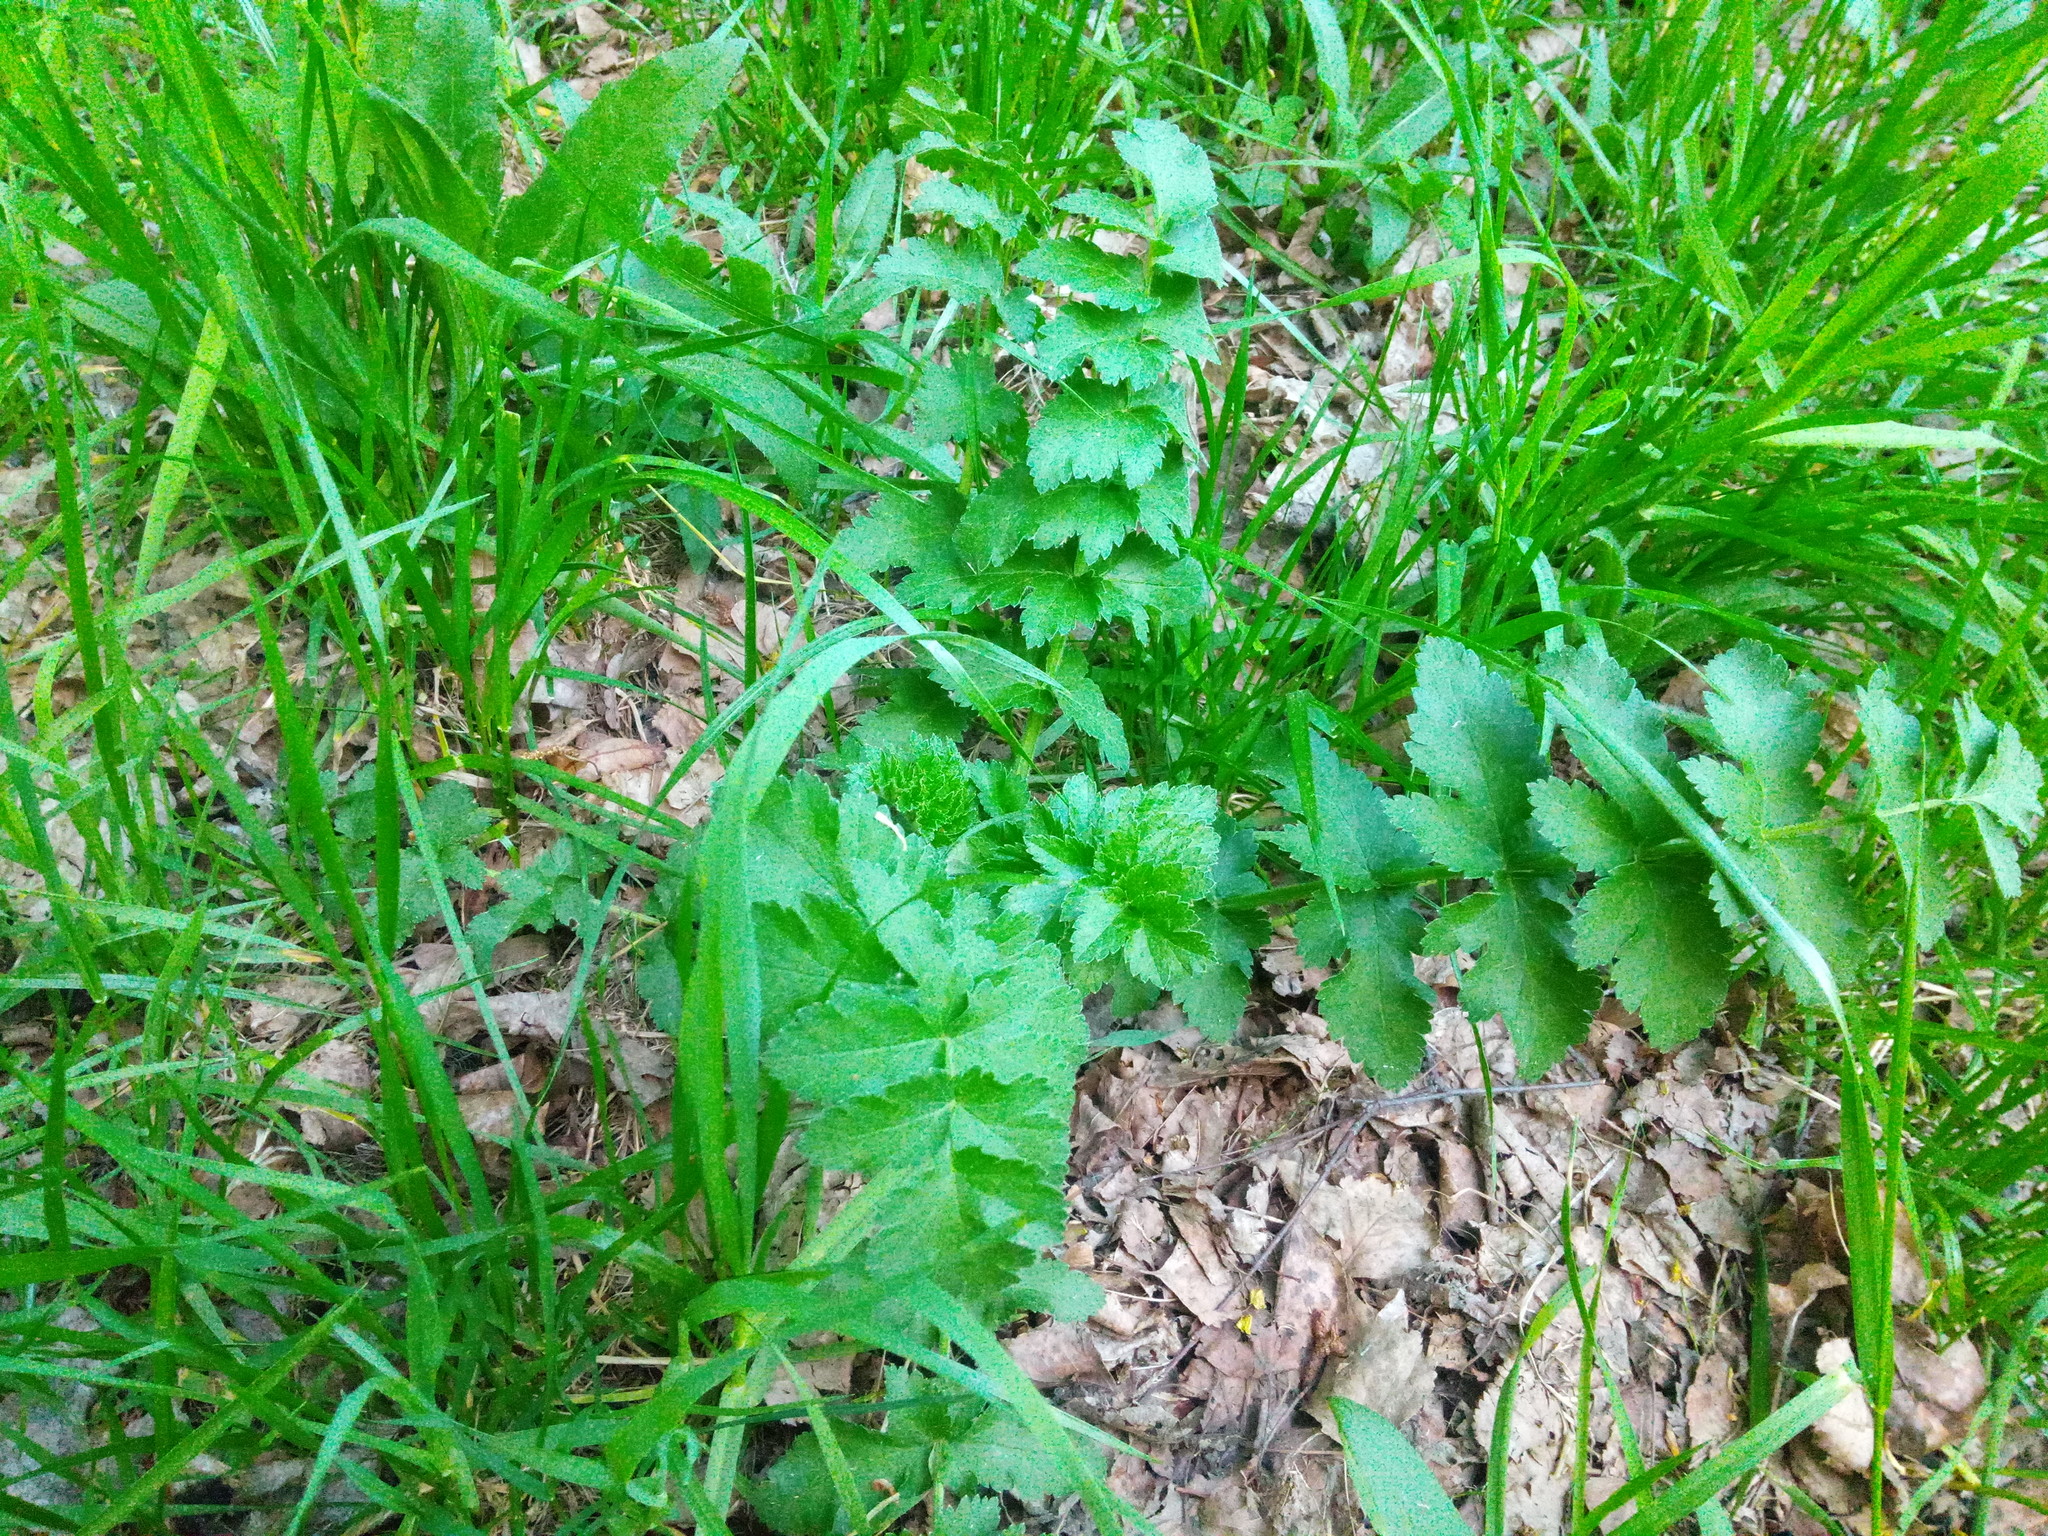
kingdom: Plantae
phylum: Tracheophyta
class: Magnoliopsida
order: Apiales
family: Apiaceae
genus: Pastinaca
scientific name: Pastinaca sativa
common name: Wild parsnip
